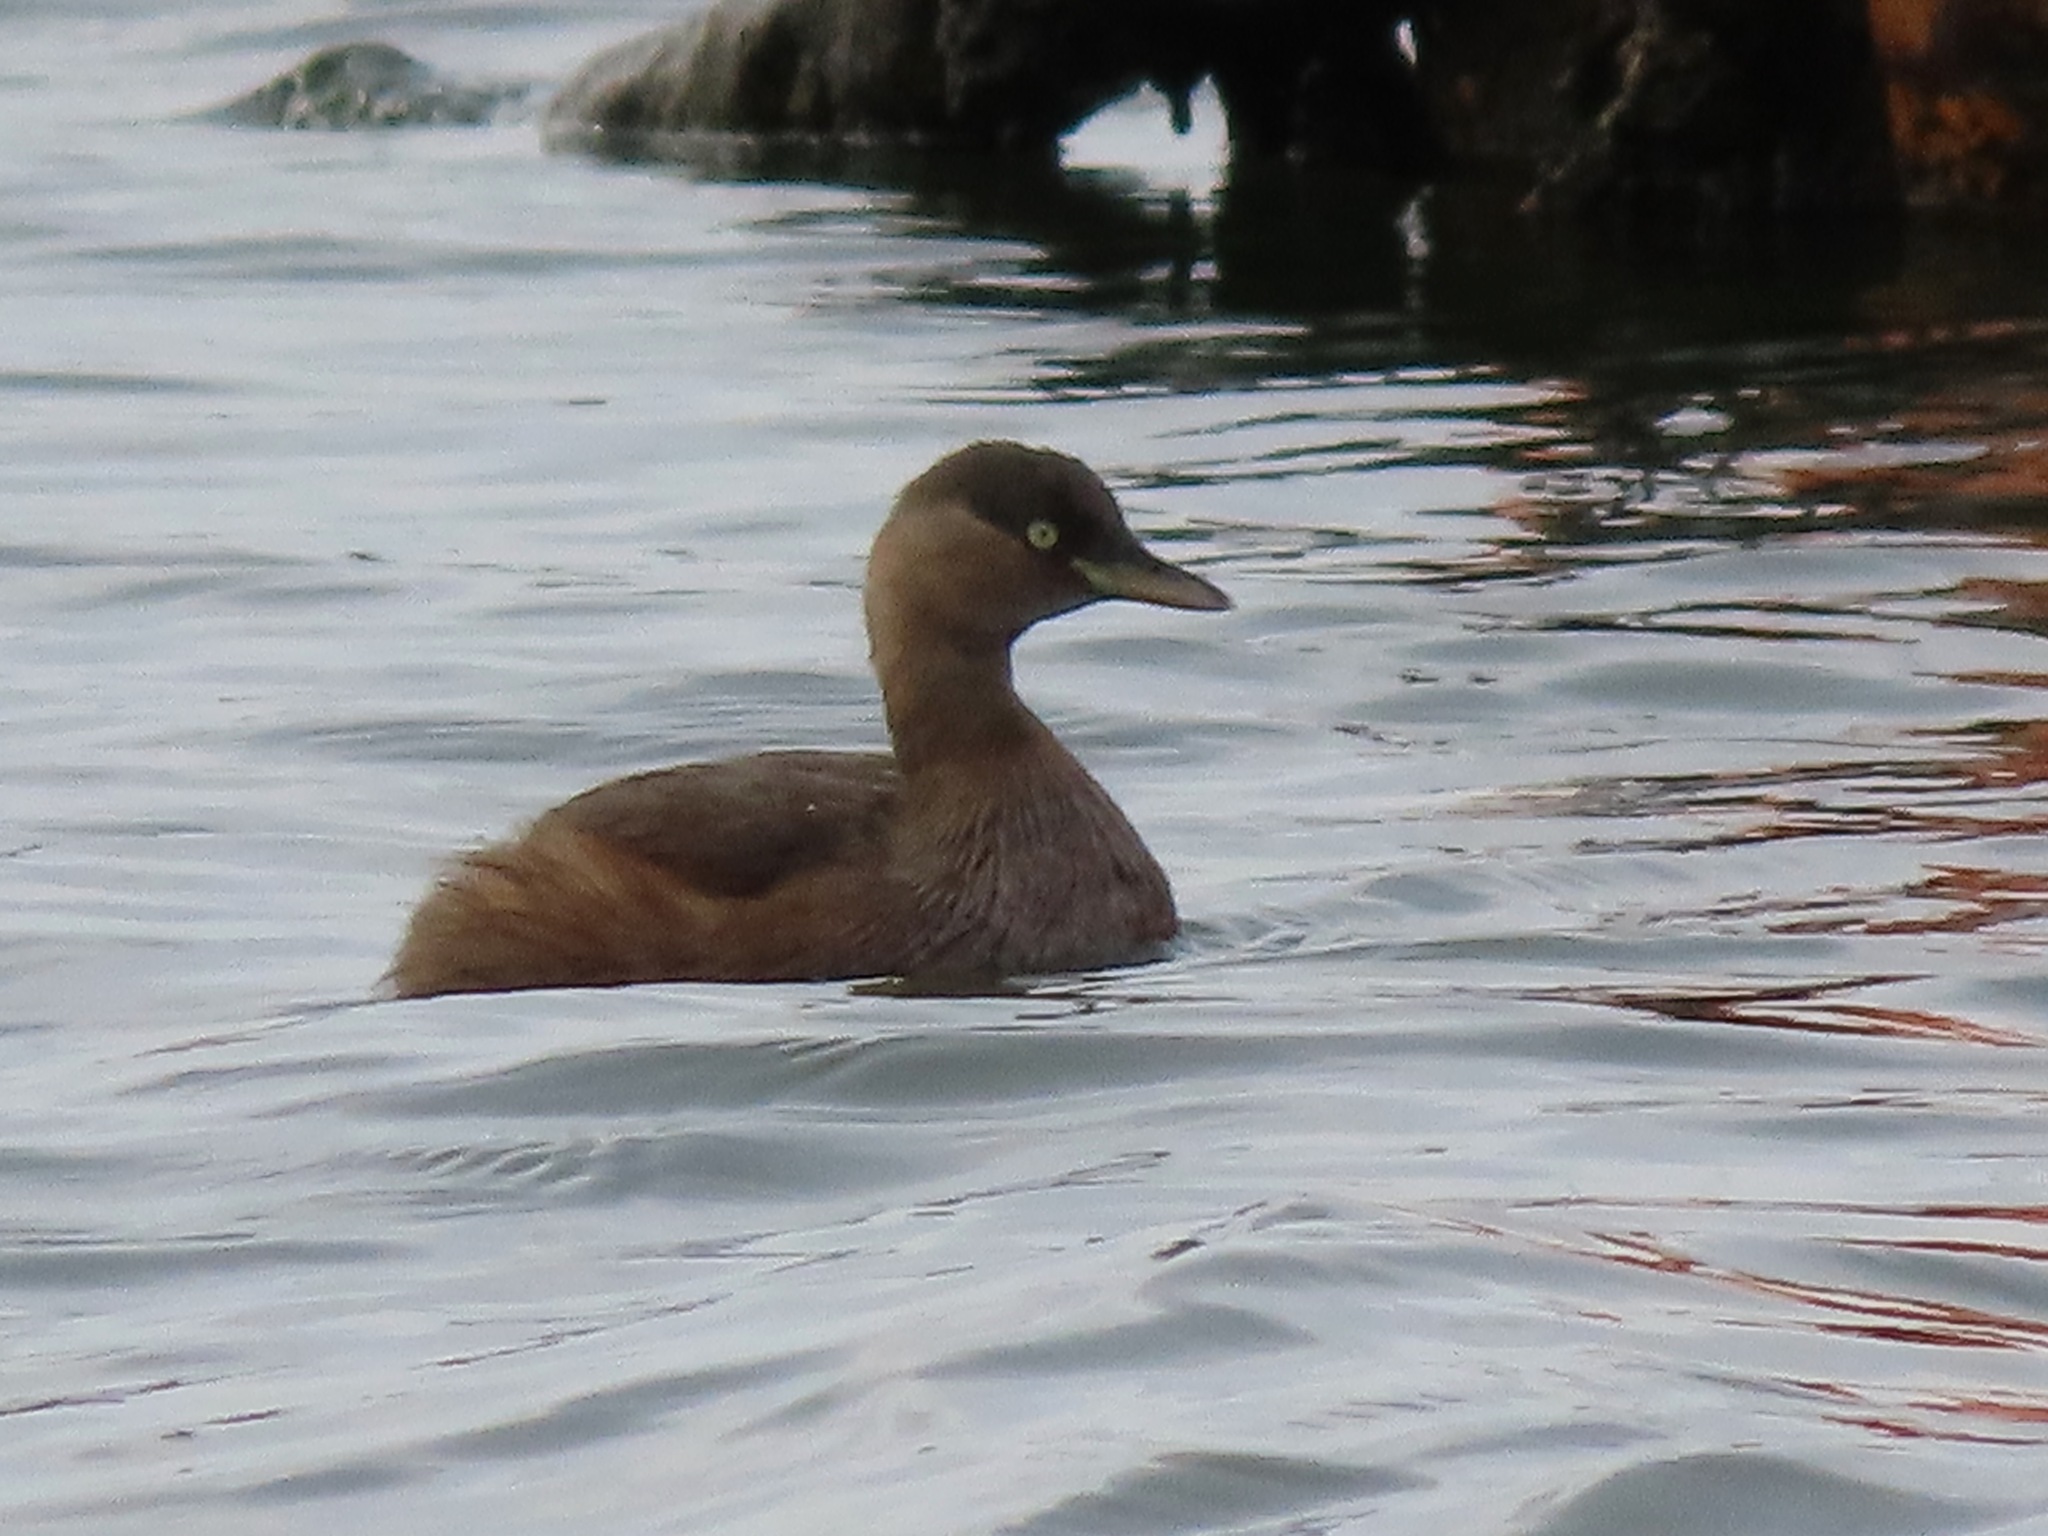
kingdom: Animalia
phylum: Chordata
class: Aves
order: Podicipediformes
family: Podicipedidae
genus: Tachybaptus
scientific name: Tachybaptus ruficollis
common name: Little grebe
